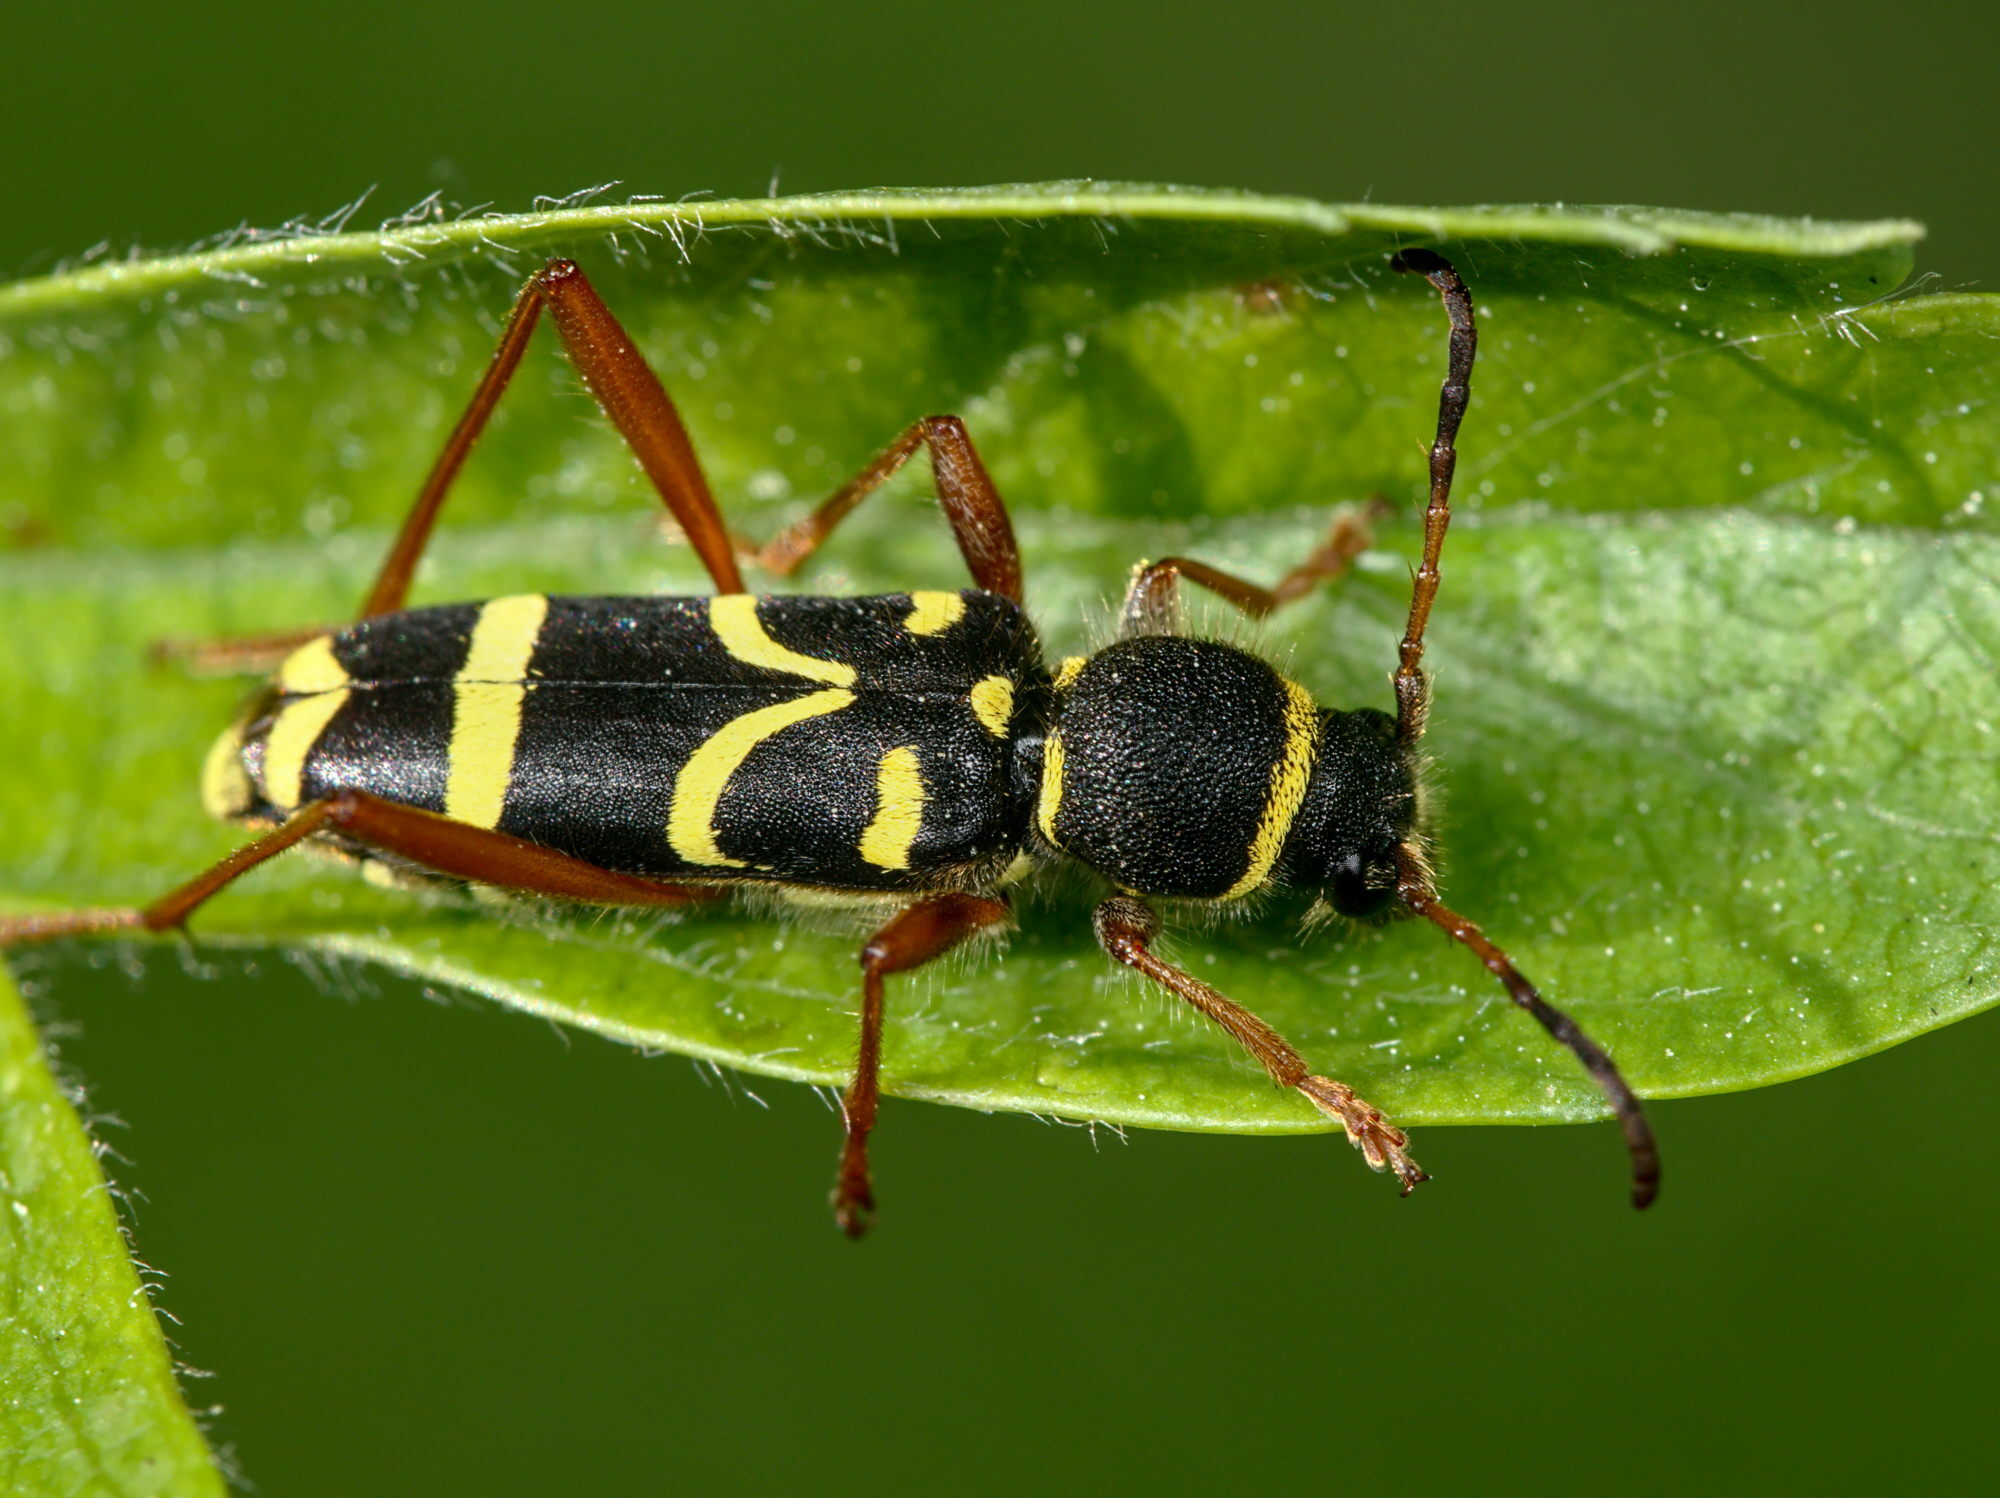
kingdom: Animalia
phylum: Arthropoda
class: Insecta
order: Coleoptera
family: Cerambycidae
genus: Clytus
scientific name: Clytus arietis
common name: Wasp beetle
